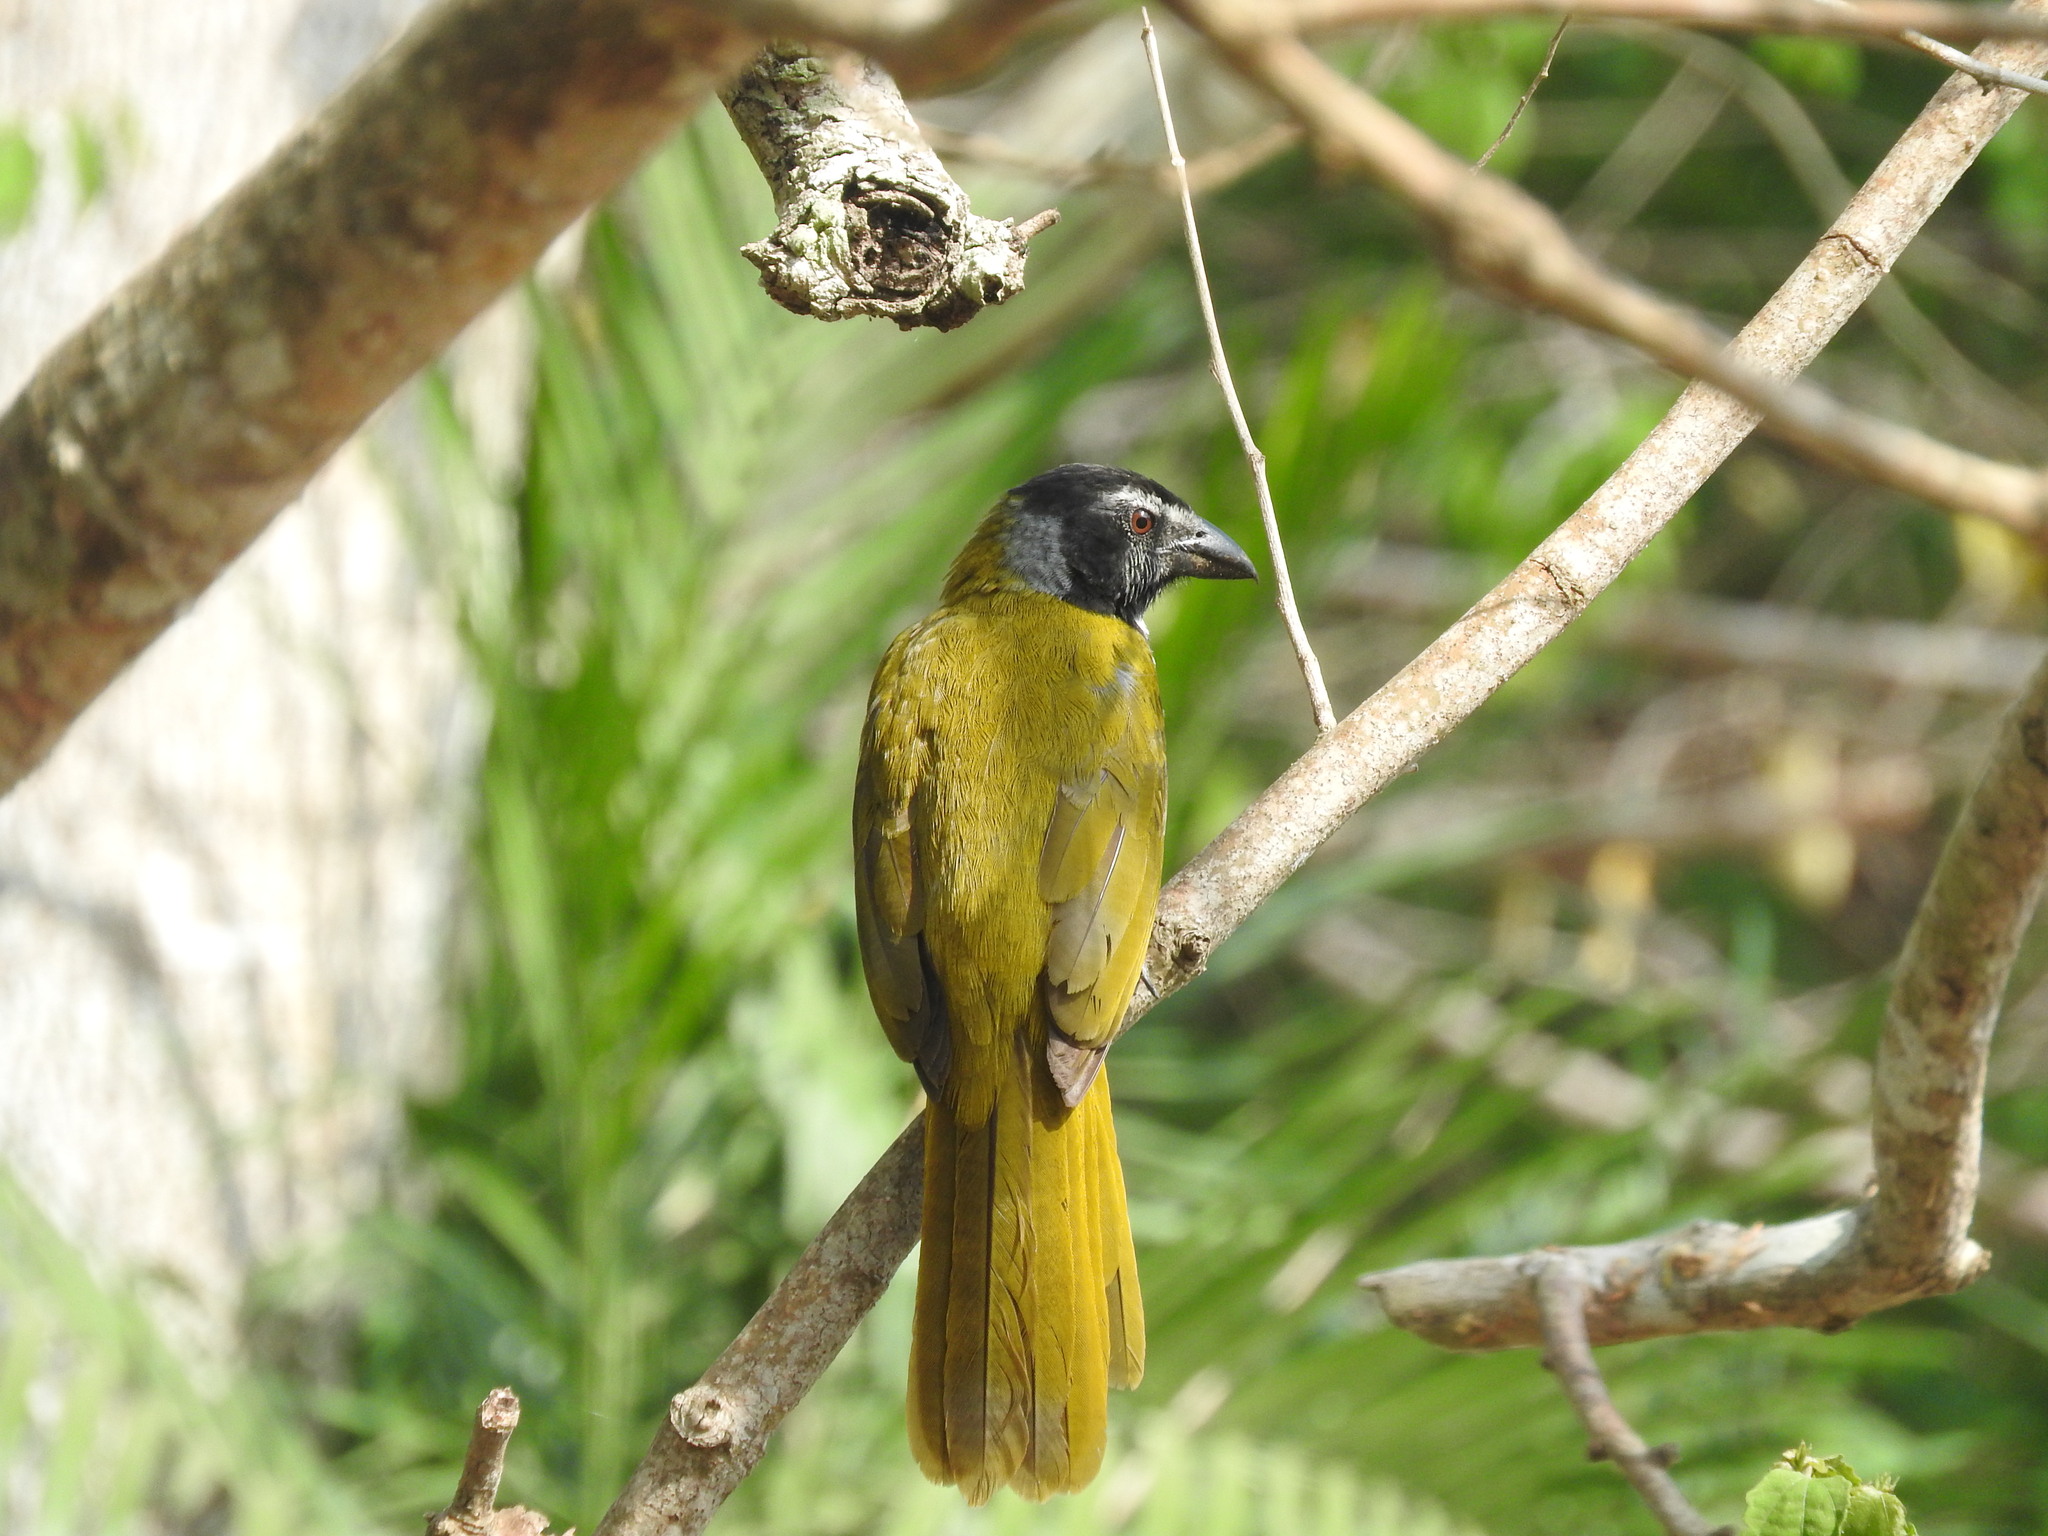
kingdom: Animalia
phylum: Chordata
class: Aves
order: Passeriformes
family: Thraupidae
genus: Saltator
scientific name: Saltator atriceps
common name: Black-headed saltator
